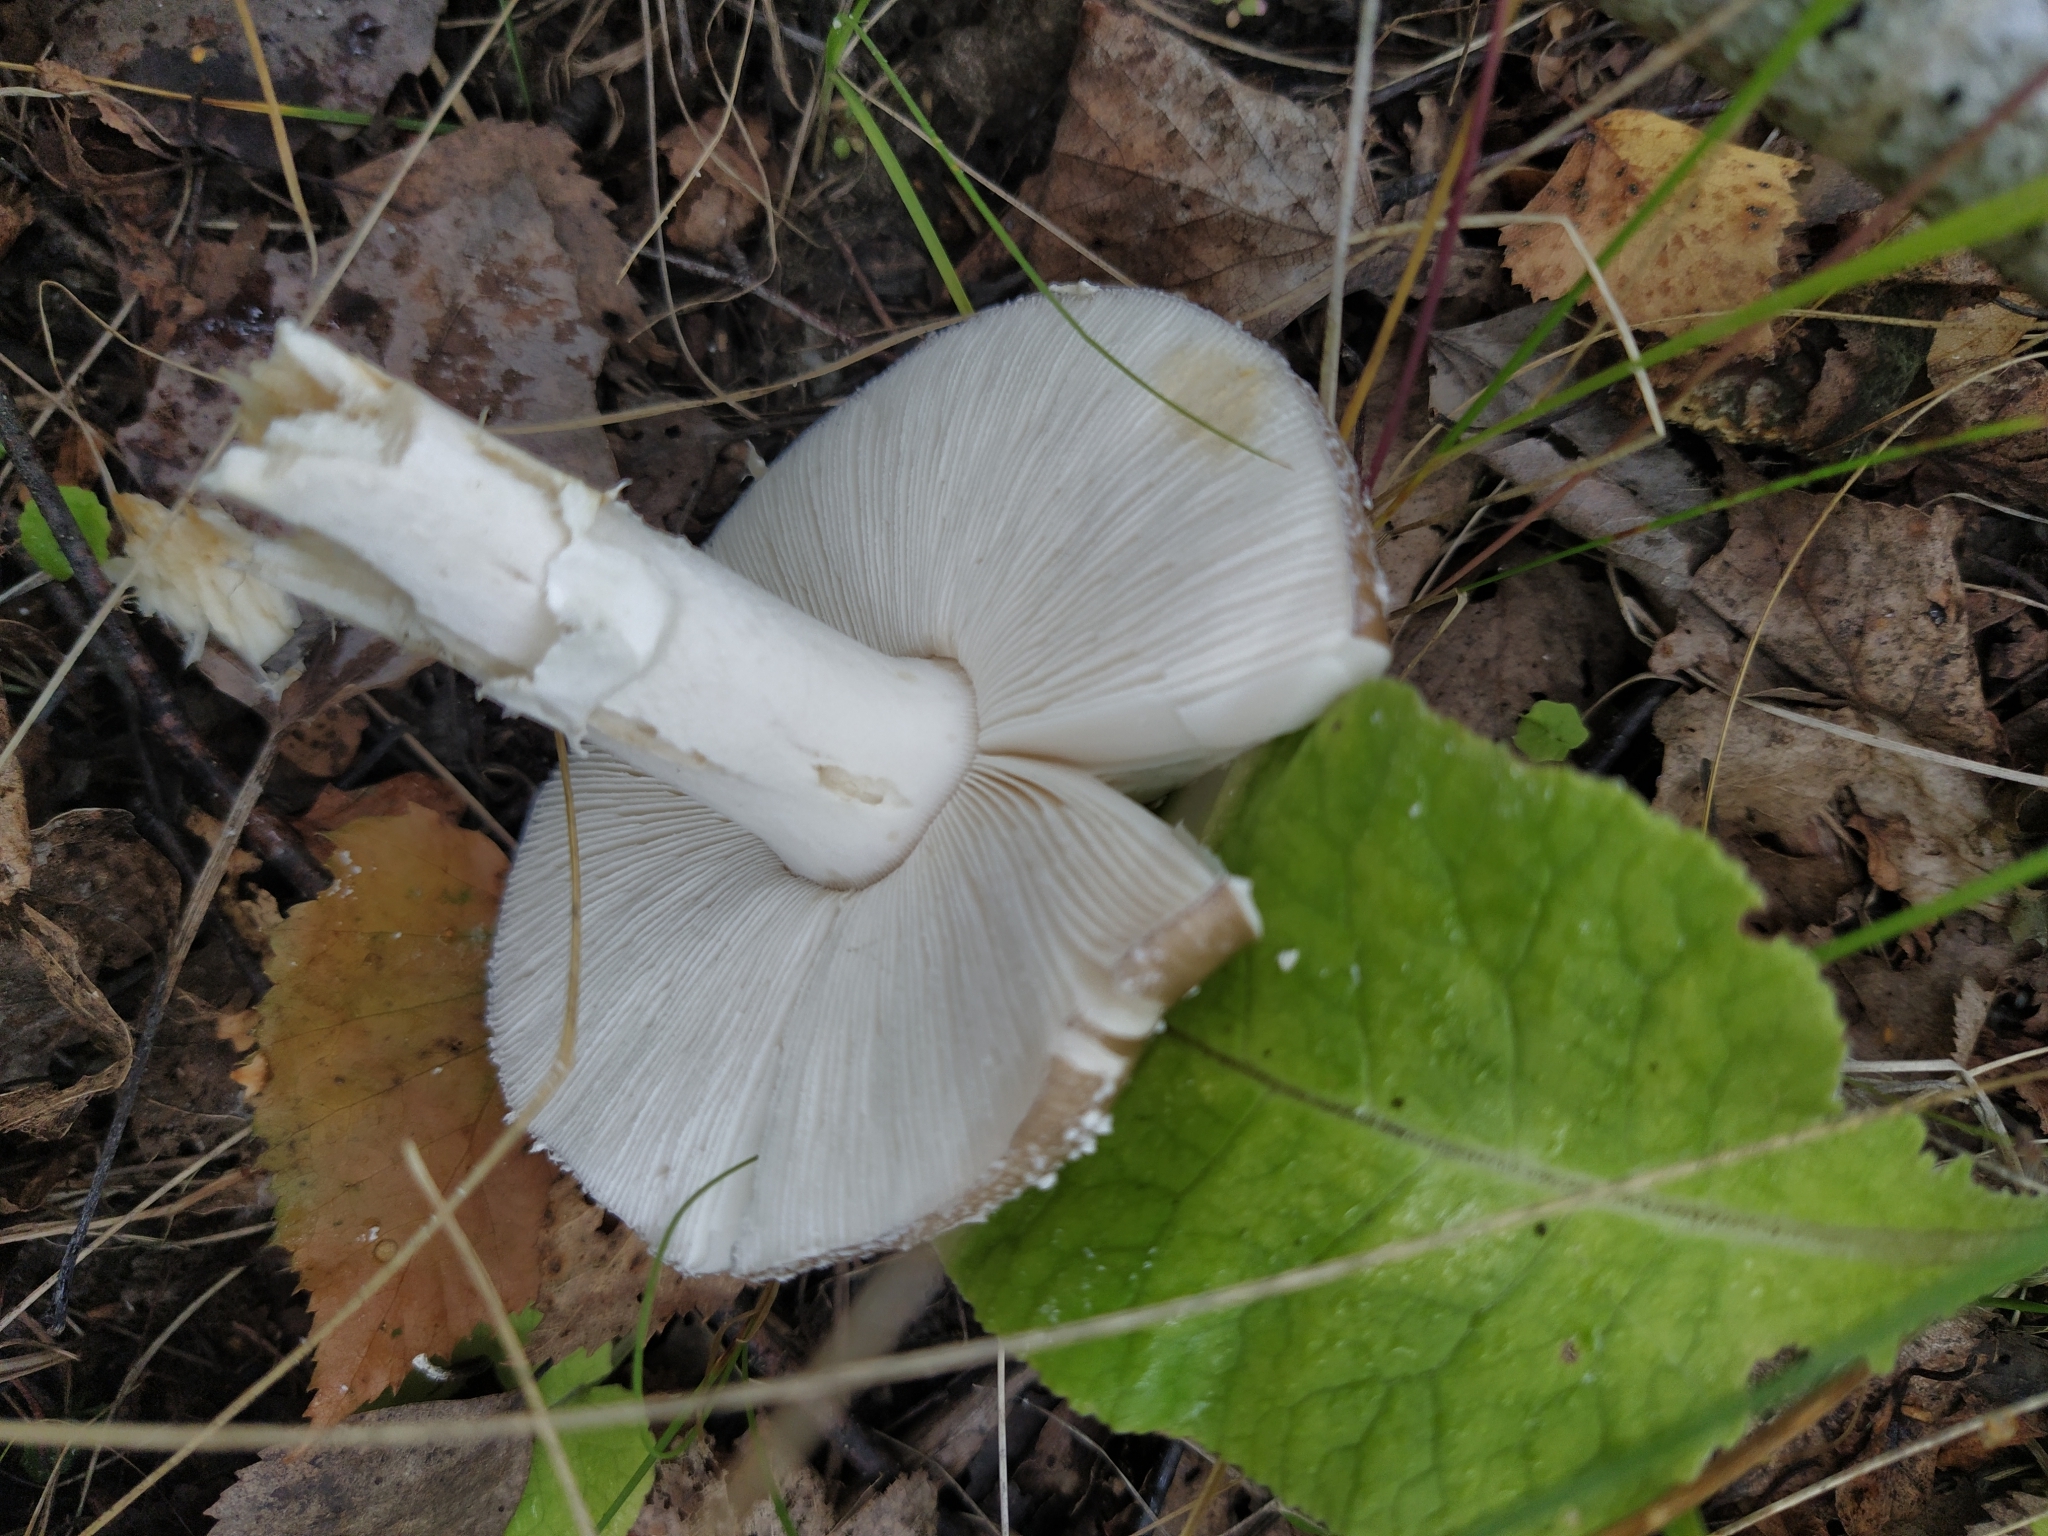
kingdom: Fungi
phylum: Basidiomycota
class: Agaricomycetes
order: Agaricales
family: Amanitaceae
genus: Amanita
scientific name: Amanita pantherina
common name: Panthercap
